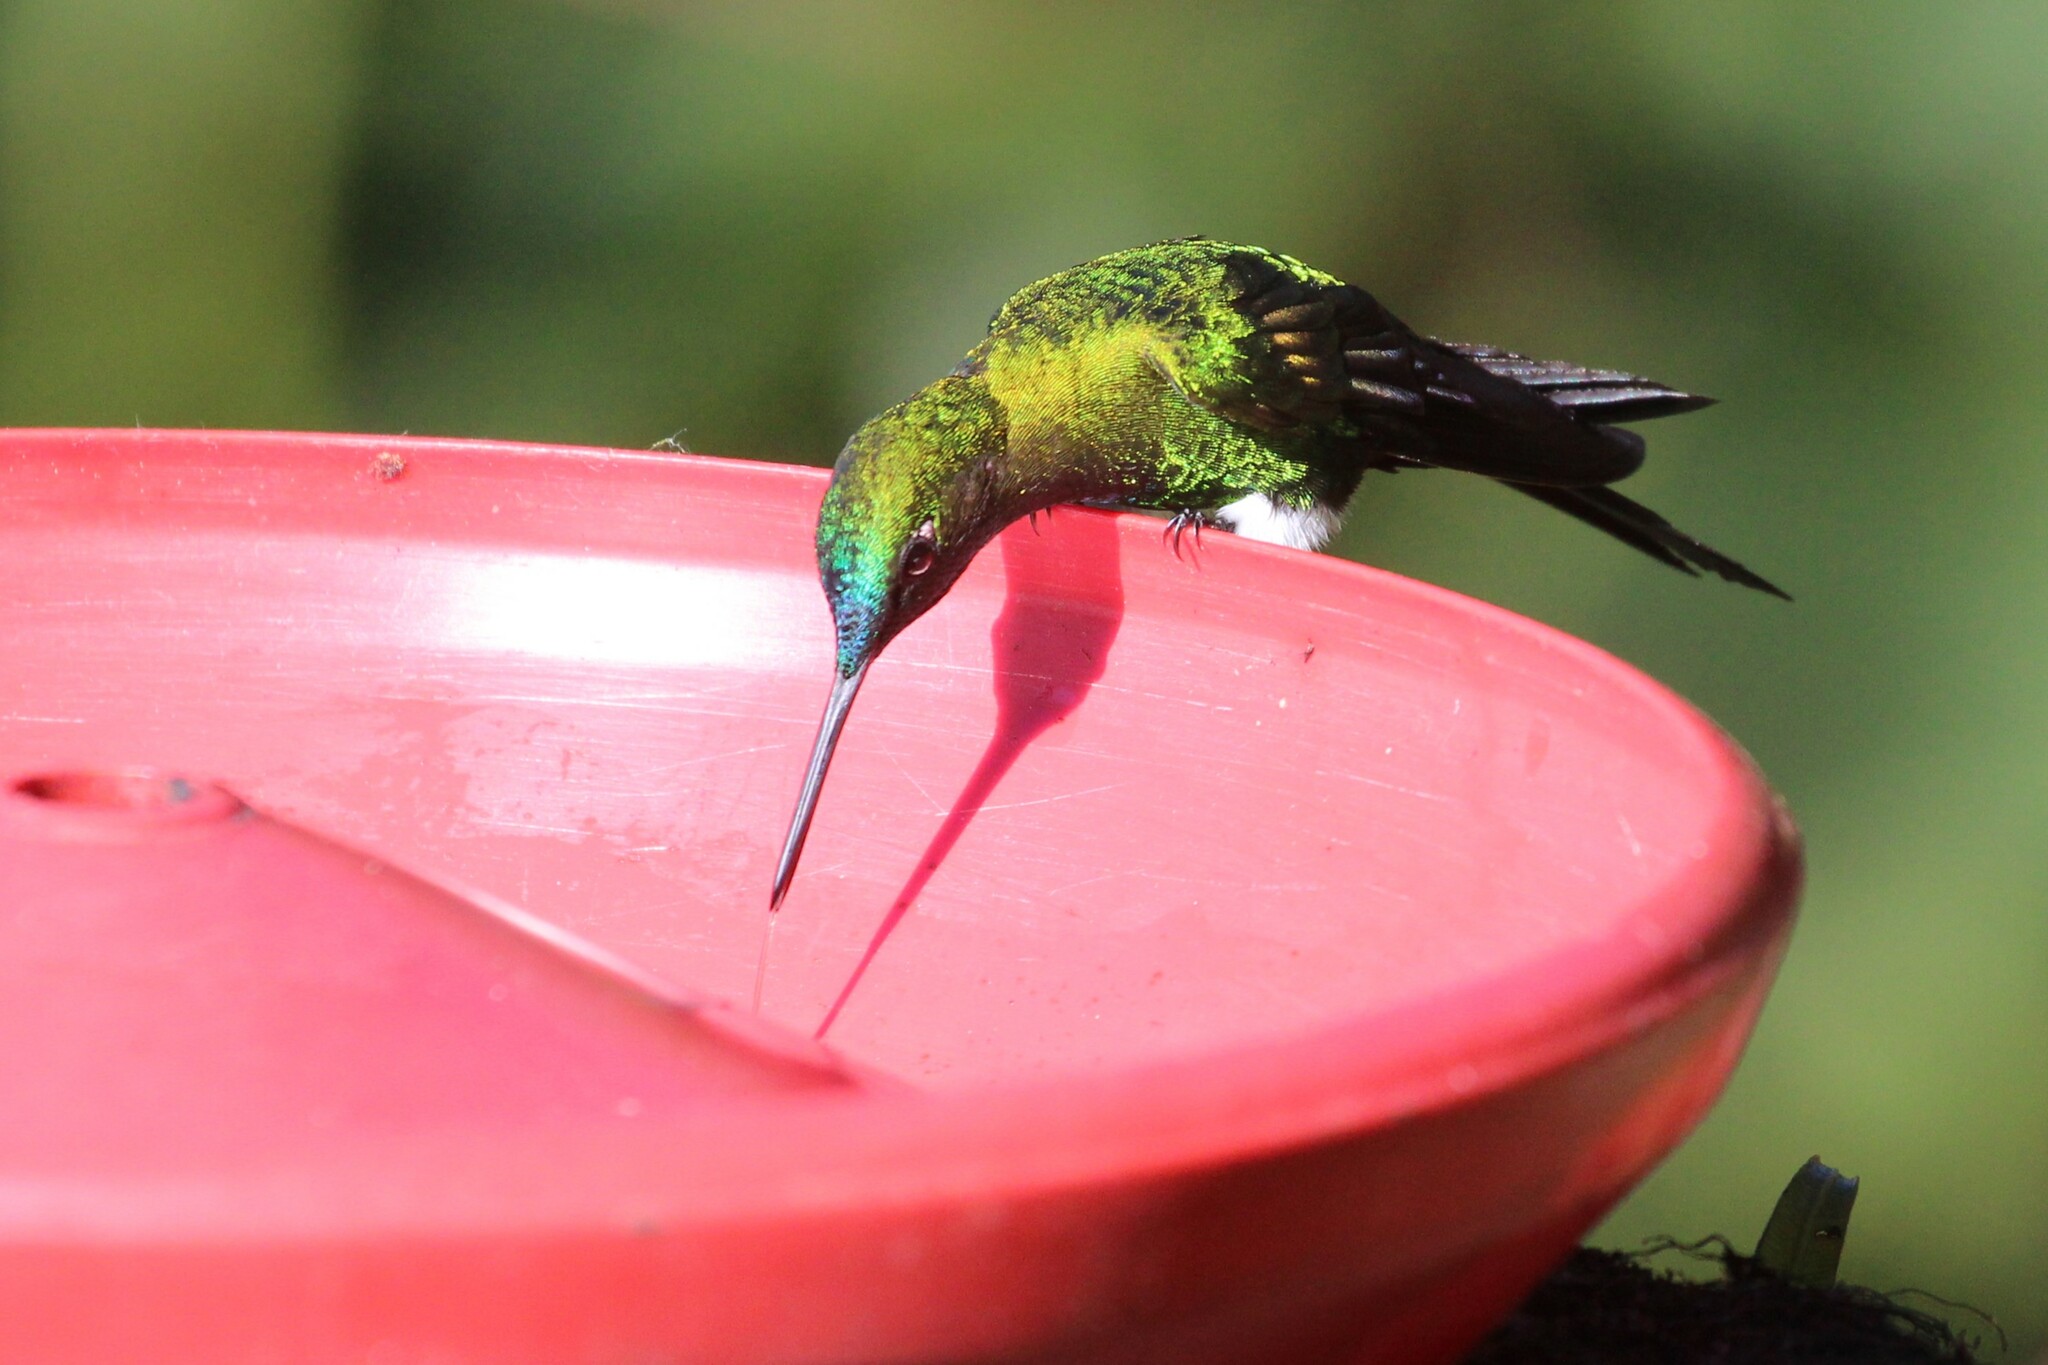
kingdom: Animalia
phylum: Chordata
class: Aves
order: Apodiformes
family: Trochilidae
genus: Eriocnemis
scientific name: Eriocnemis luciani
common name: Sapphire-vented puffleg
